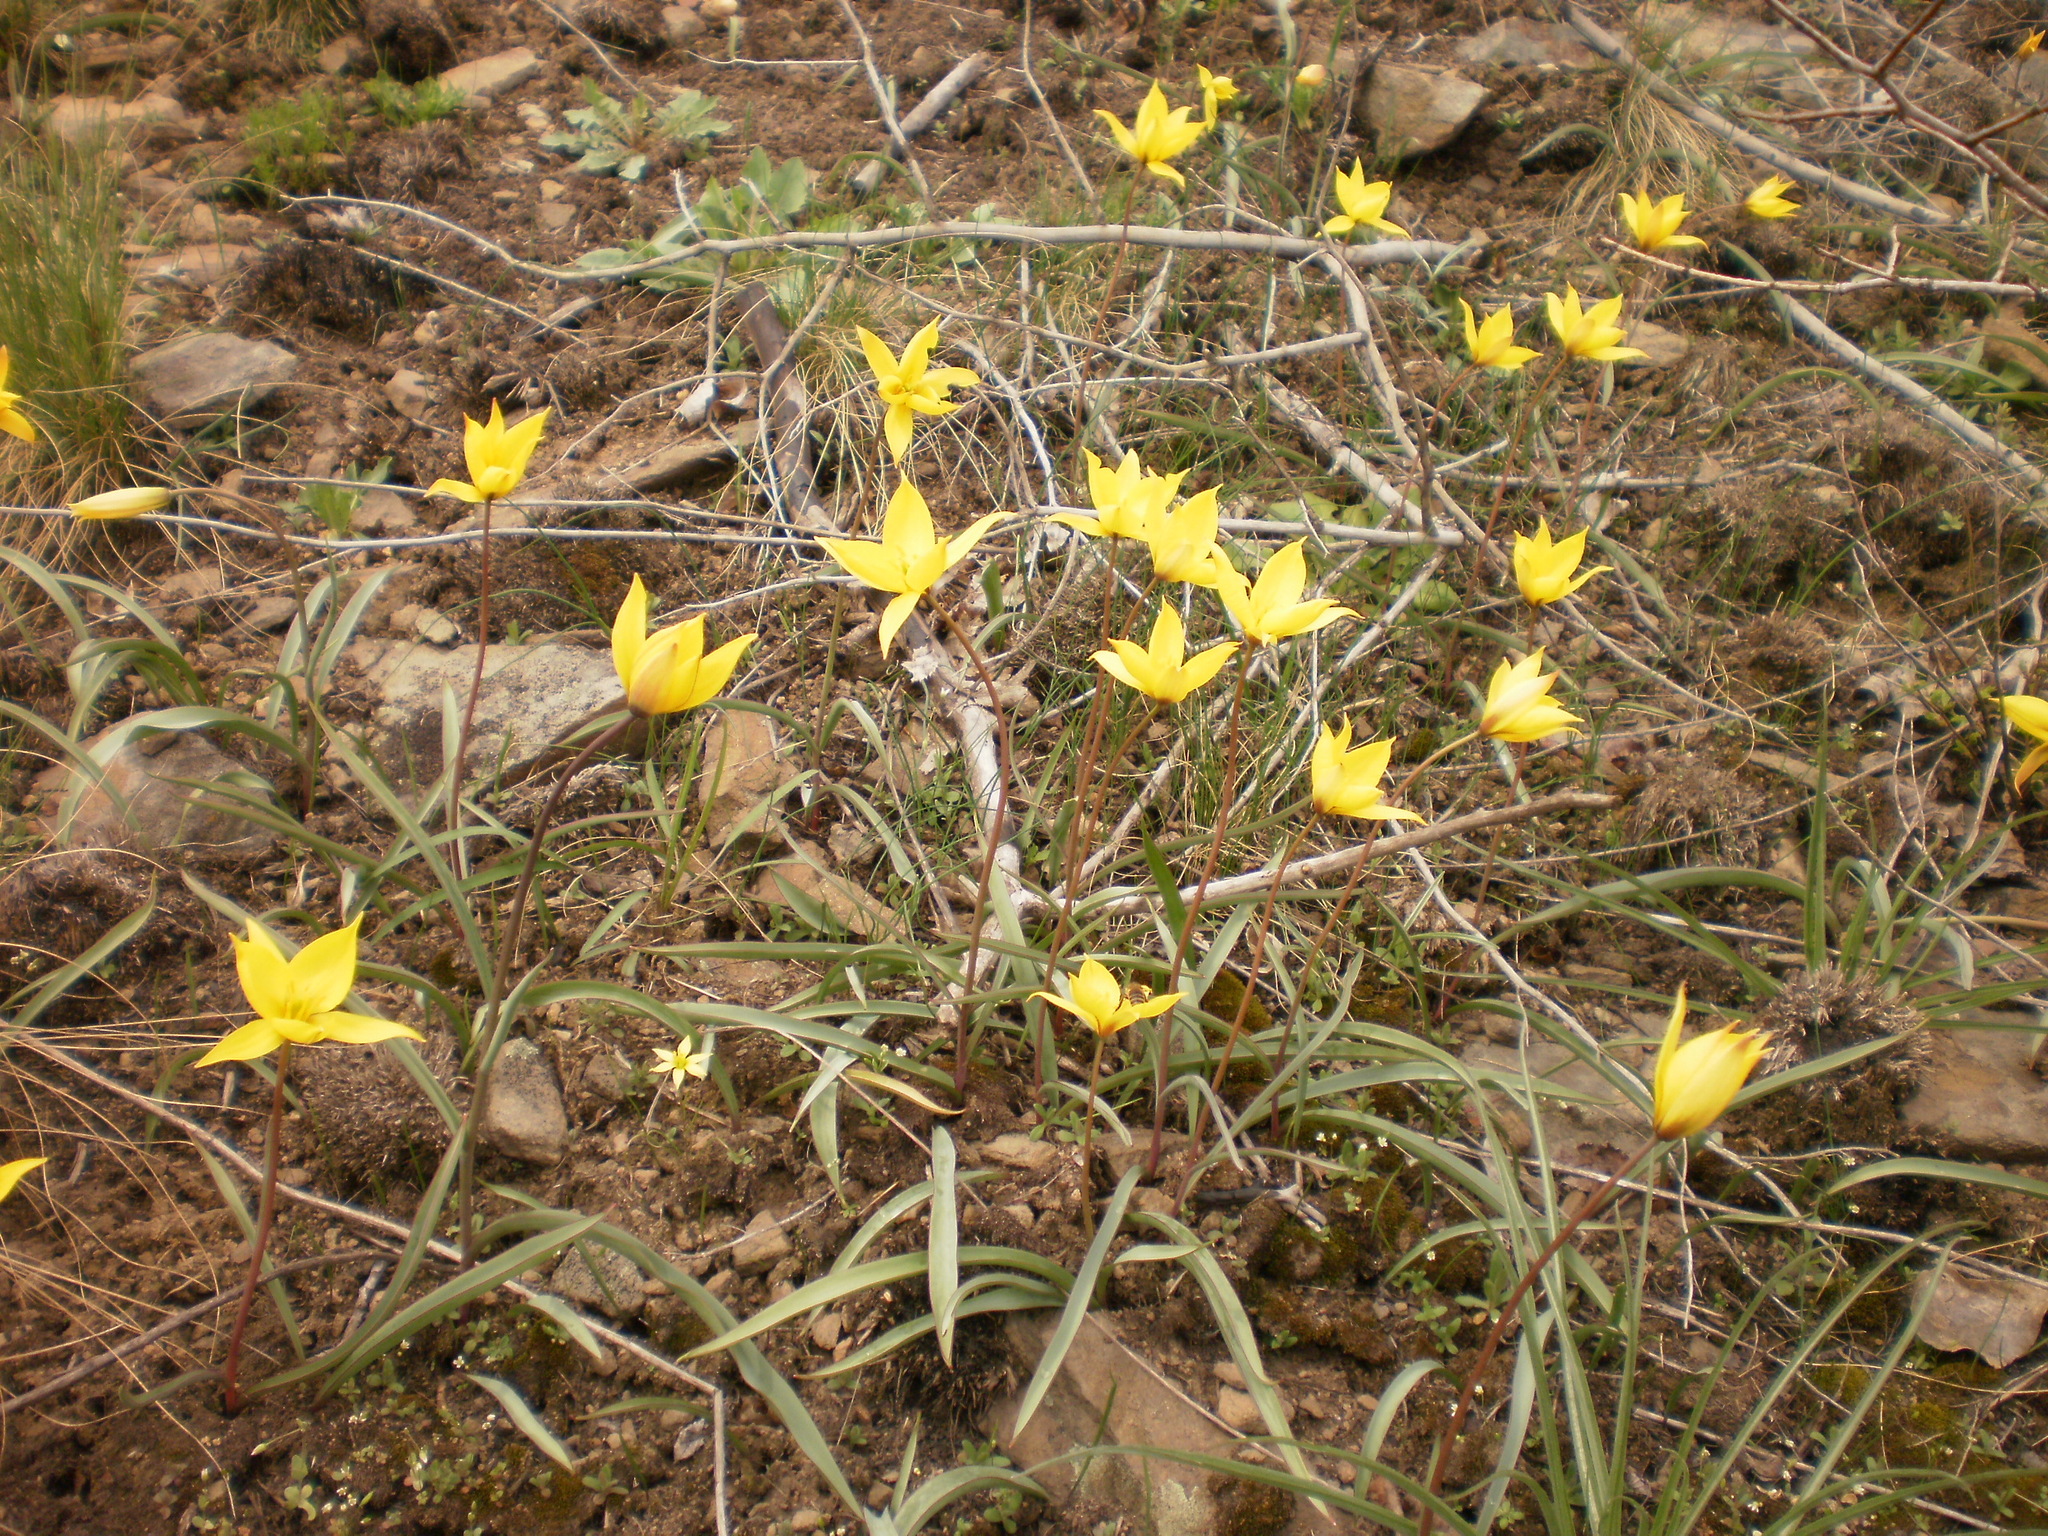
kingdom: Plantae
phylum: Tracheophyta
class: Liliopsida
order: Liliales
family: Liliaceae
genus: Tulipa
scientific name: Tulipa sylvestris
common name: Wild tulip
